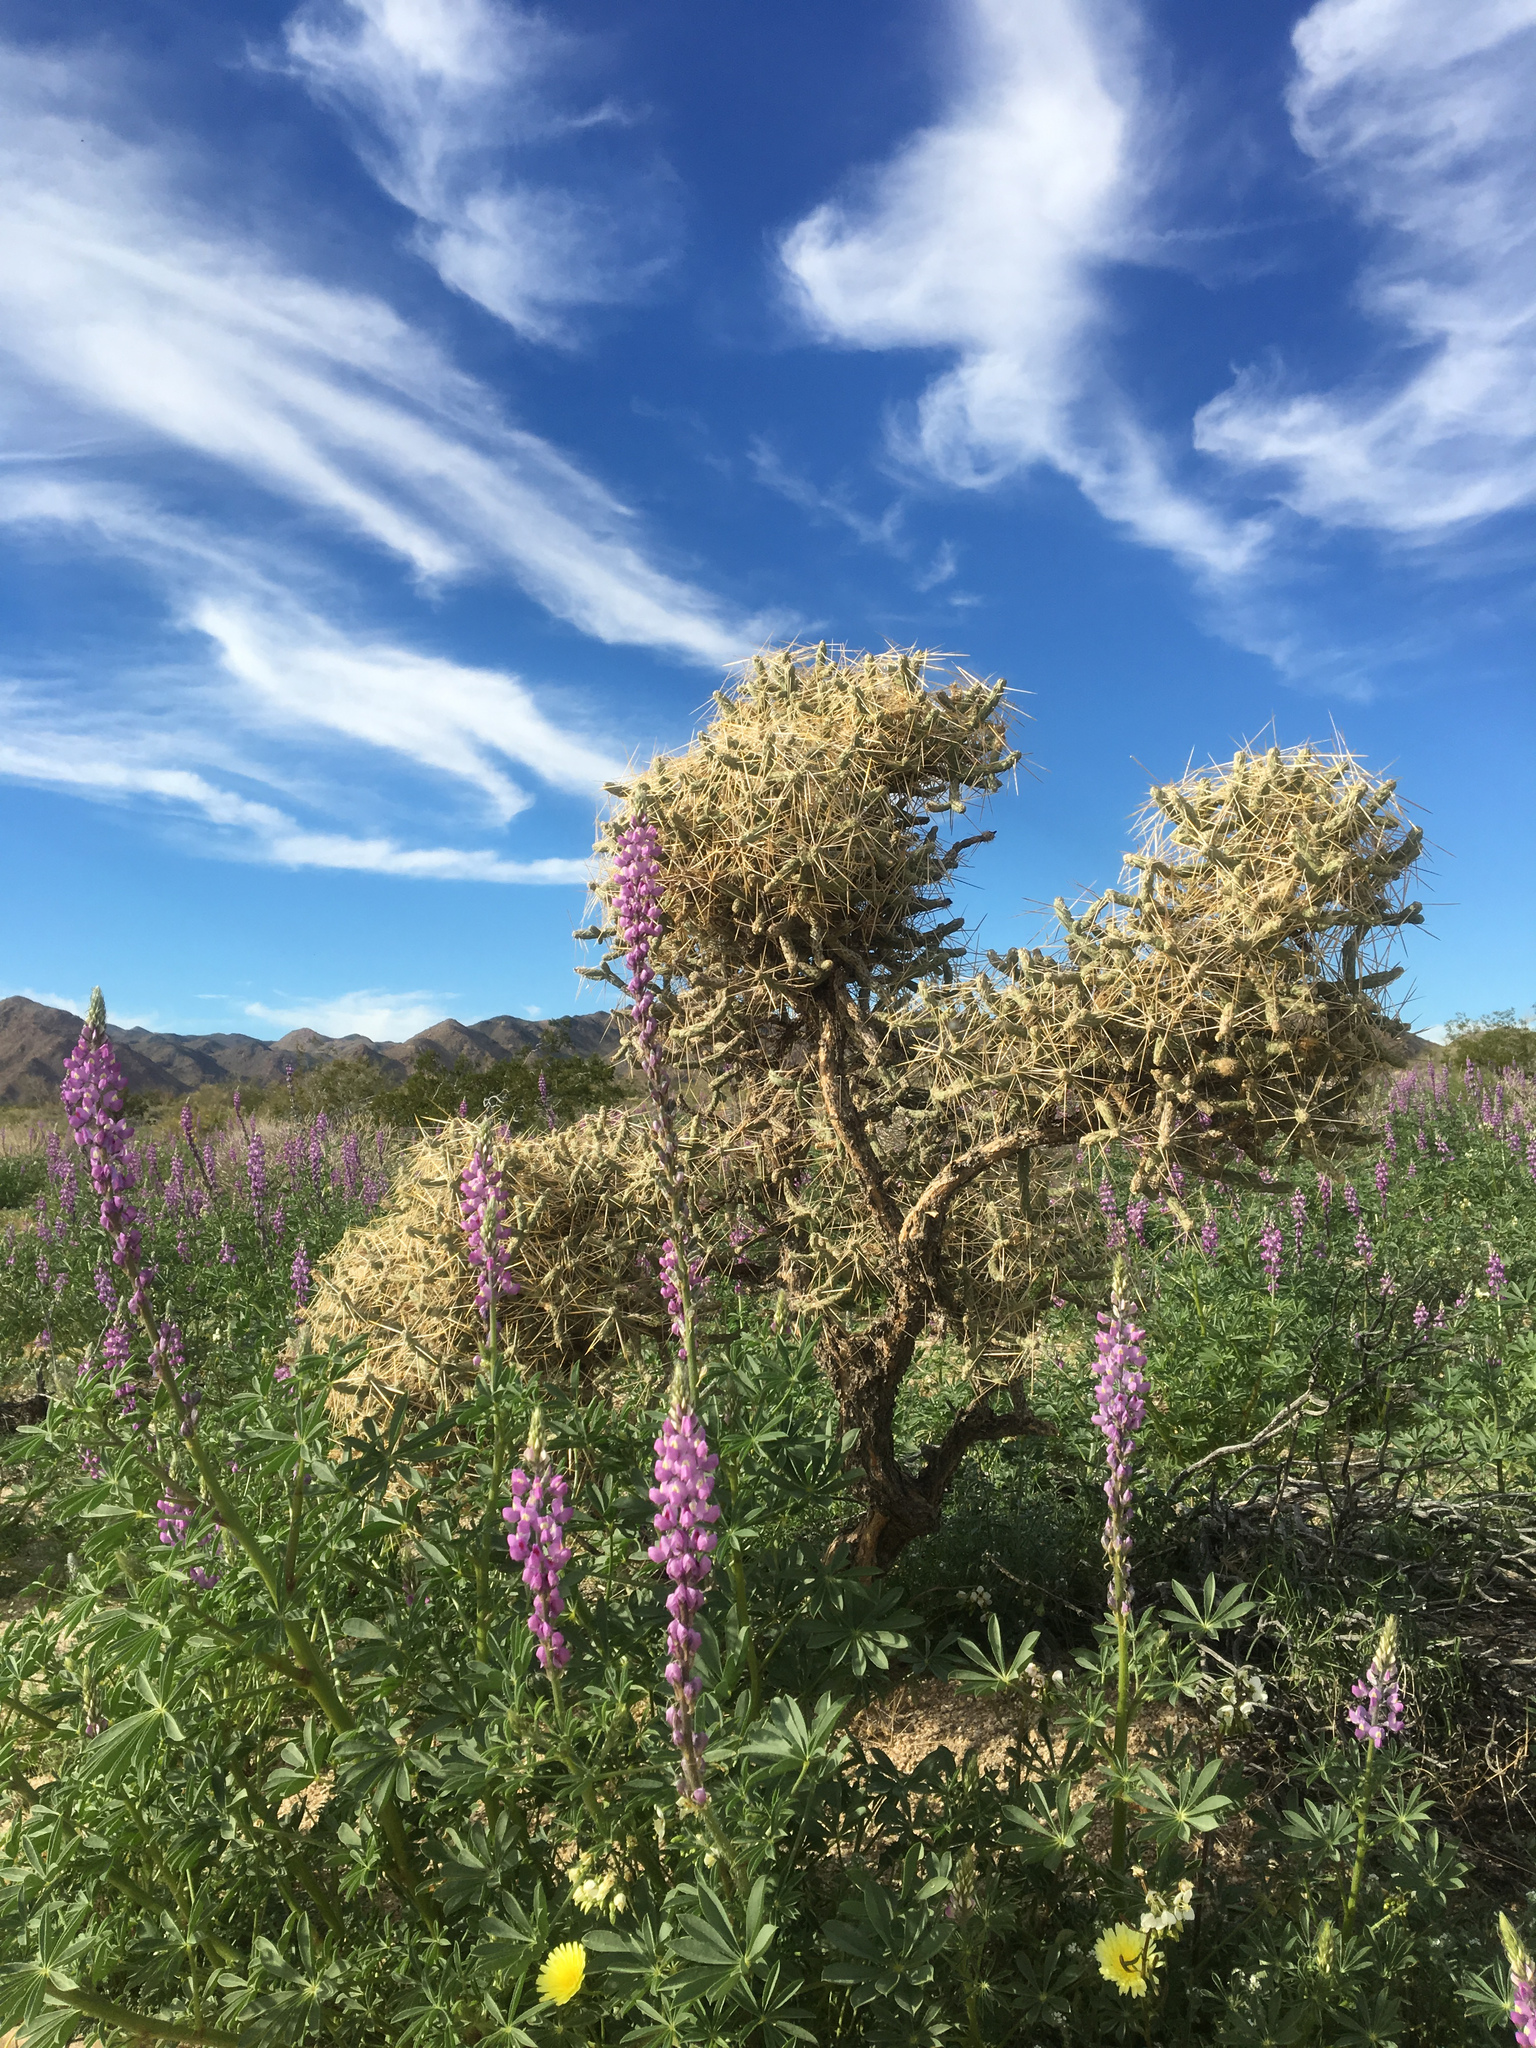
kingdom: Plantae
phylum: Tracheophyta
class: Magnoliopsida
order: Fabales
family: Fabaceae
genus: Lupinus
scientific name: Lupinus arizonicus
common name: Arizona lupine
